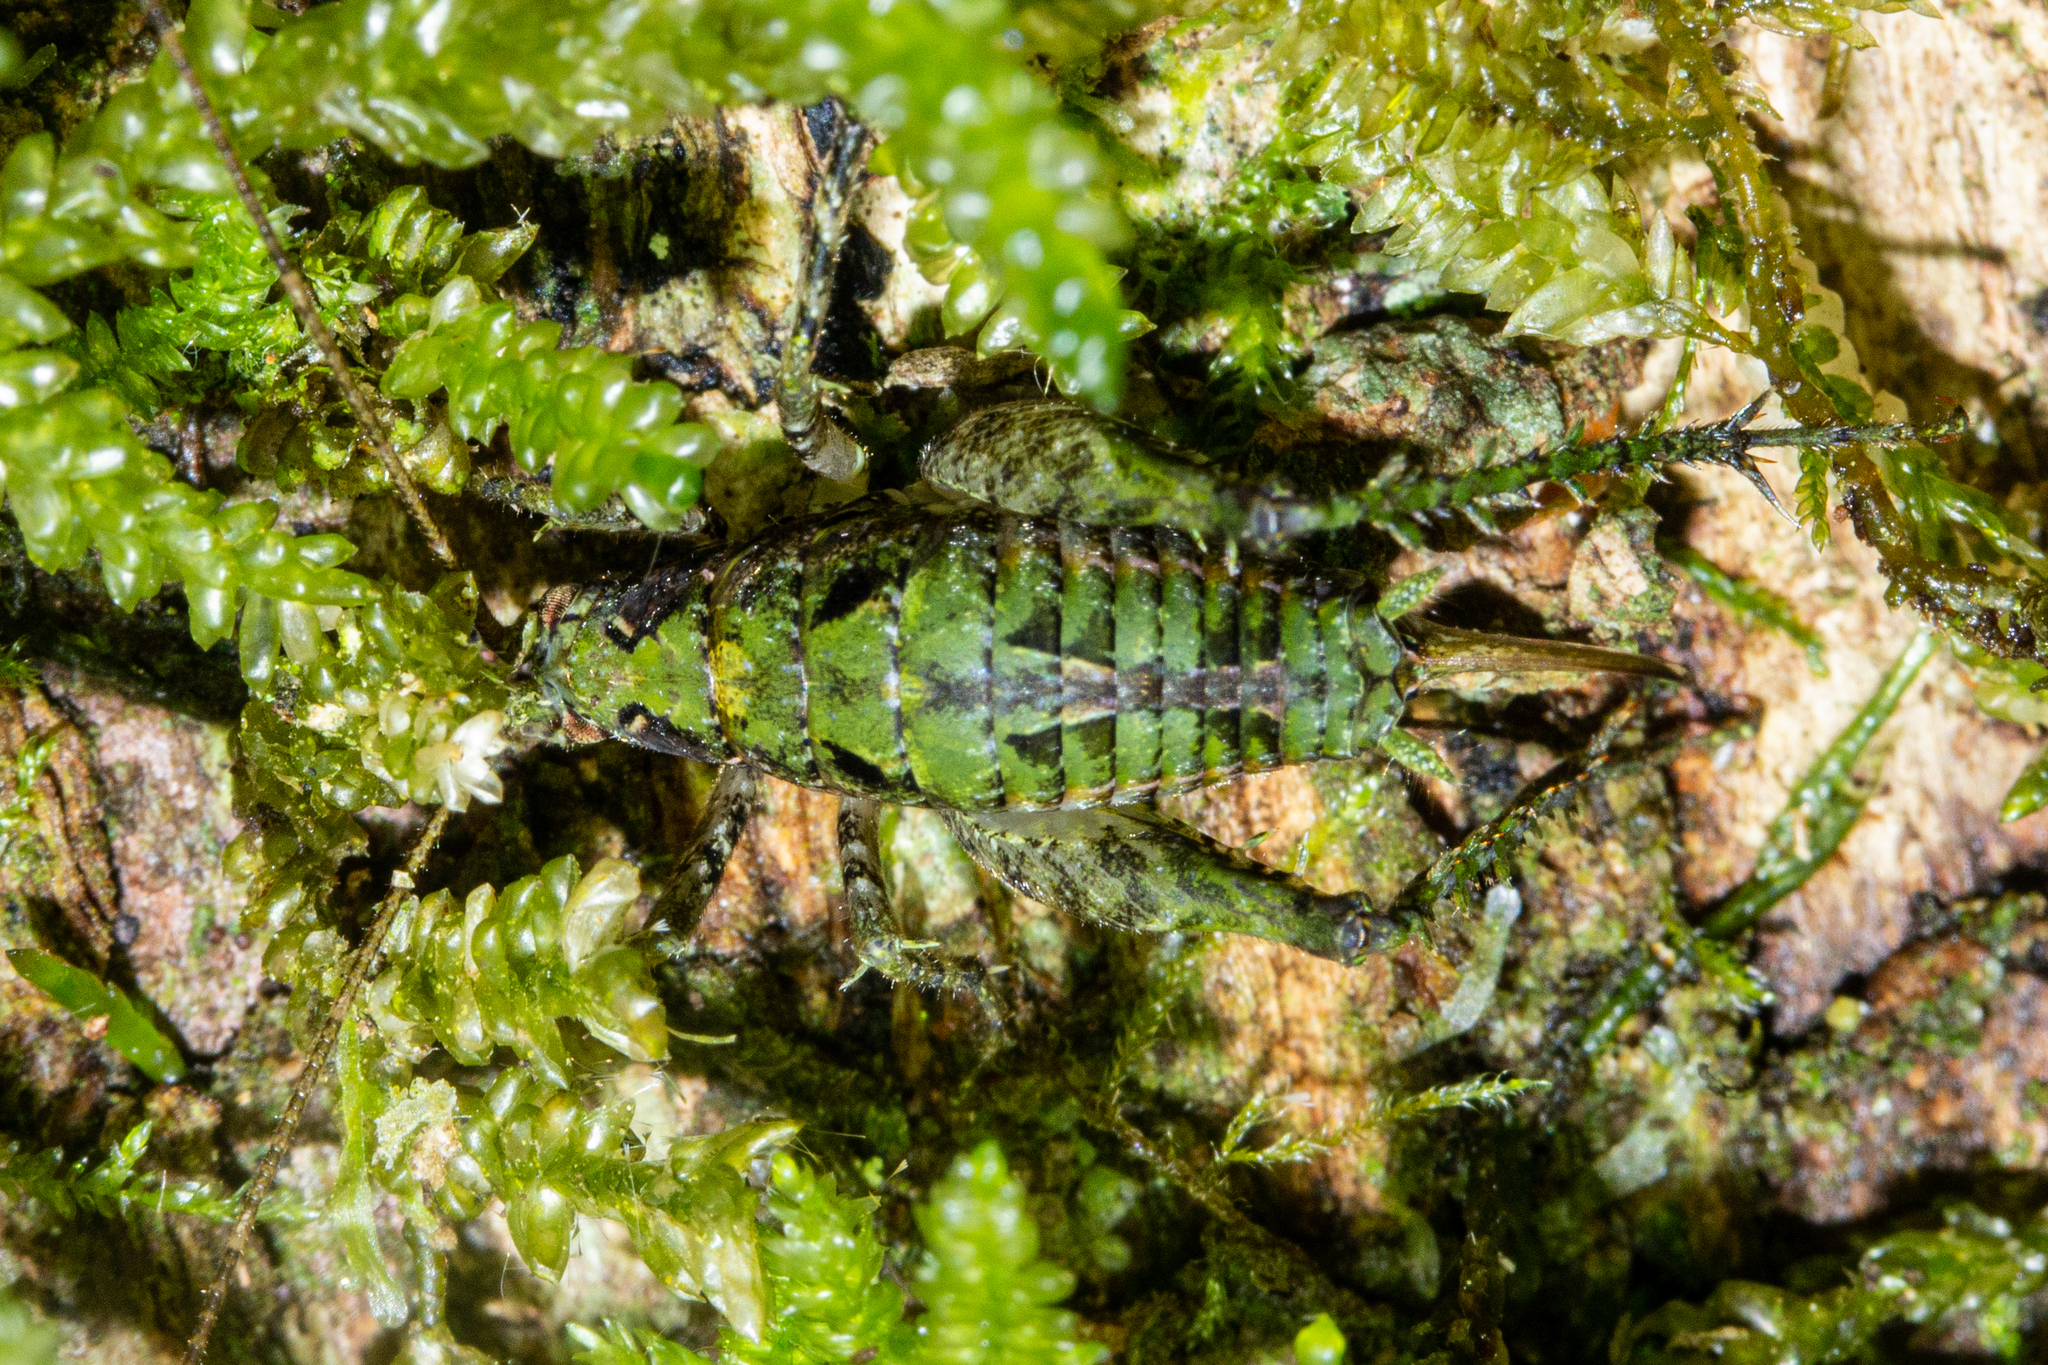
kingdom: Animalia
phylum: Arthropoda
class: Insecta
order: Orthoptera
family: Rhaphidophoridae
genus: Maotoweta
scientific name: Maotoweta virescens
